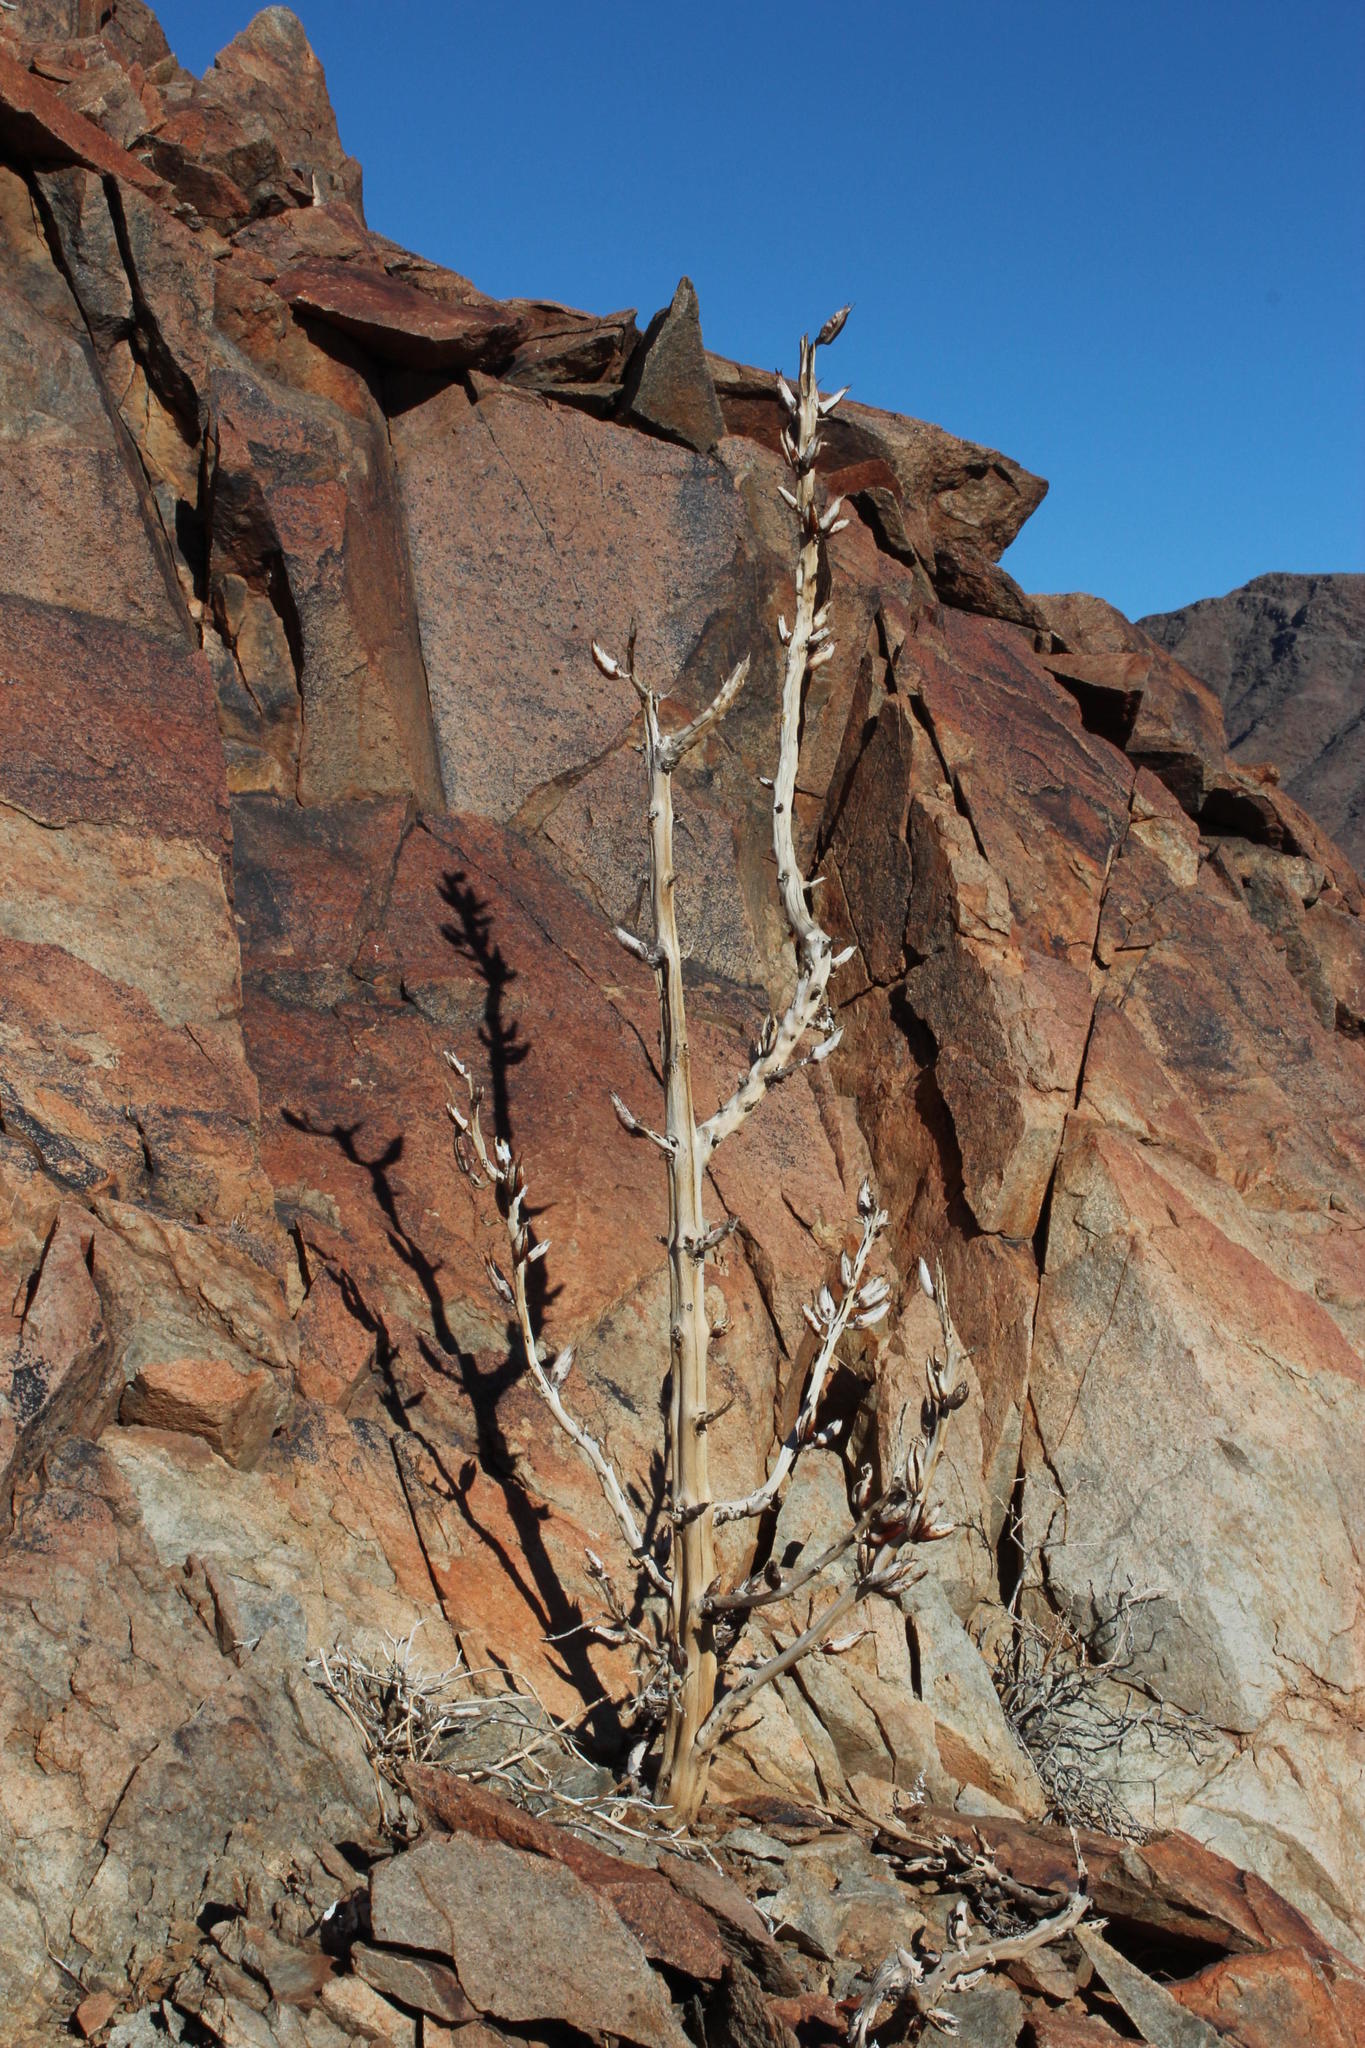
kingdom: Plantae
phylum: Tracheophyta
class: Magnoliopsida
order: Lamiales
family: Pedaliaceae
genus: Rogeria
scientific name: Rogeria longiflora
